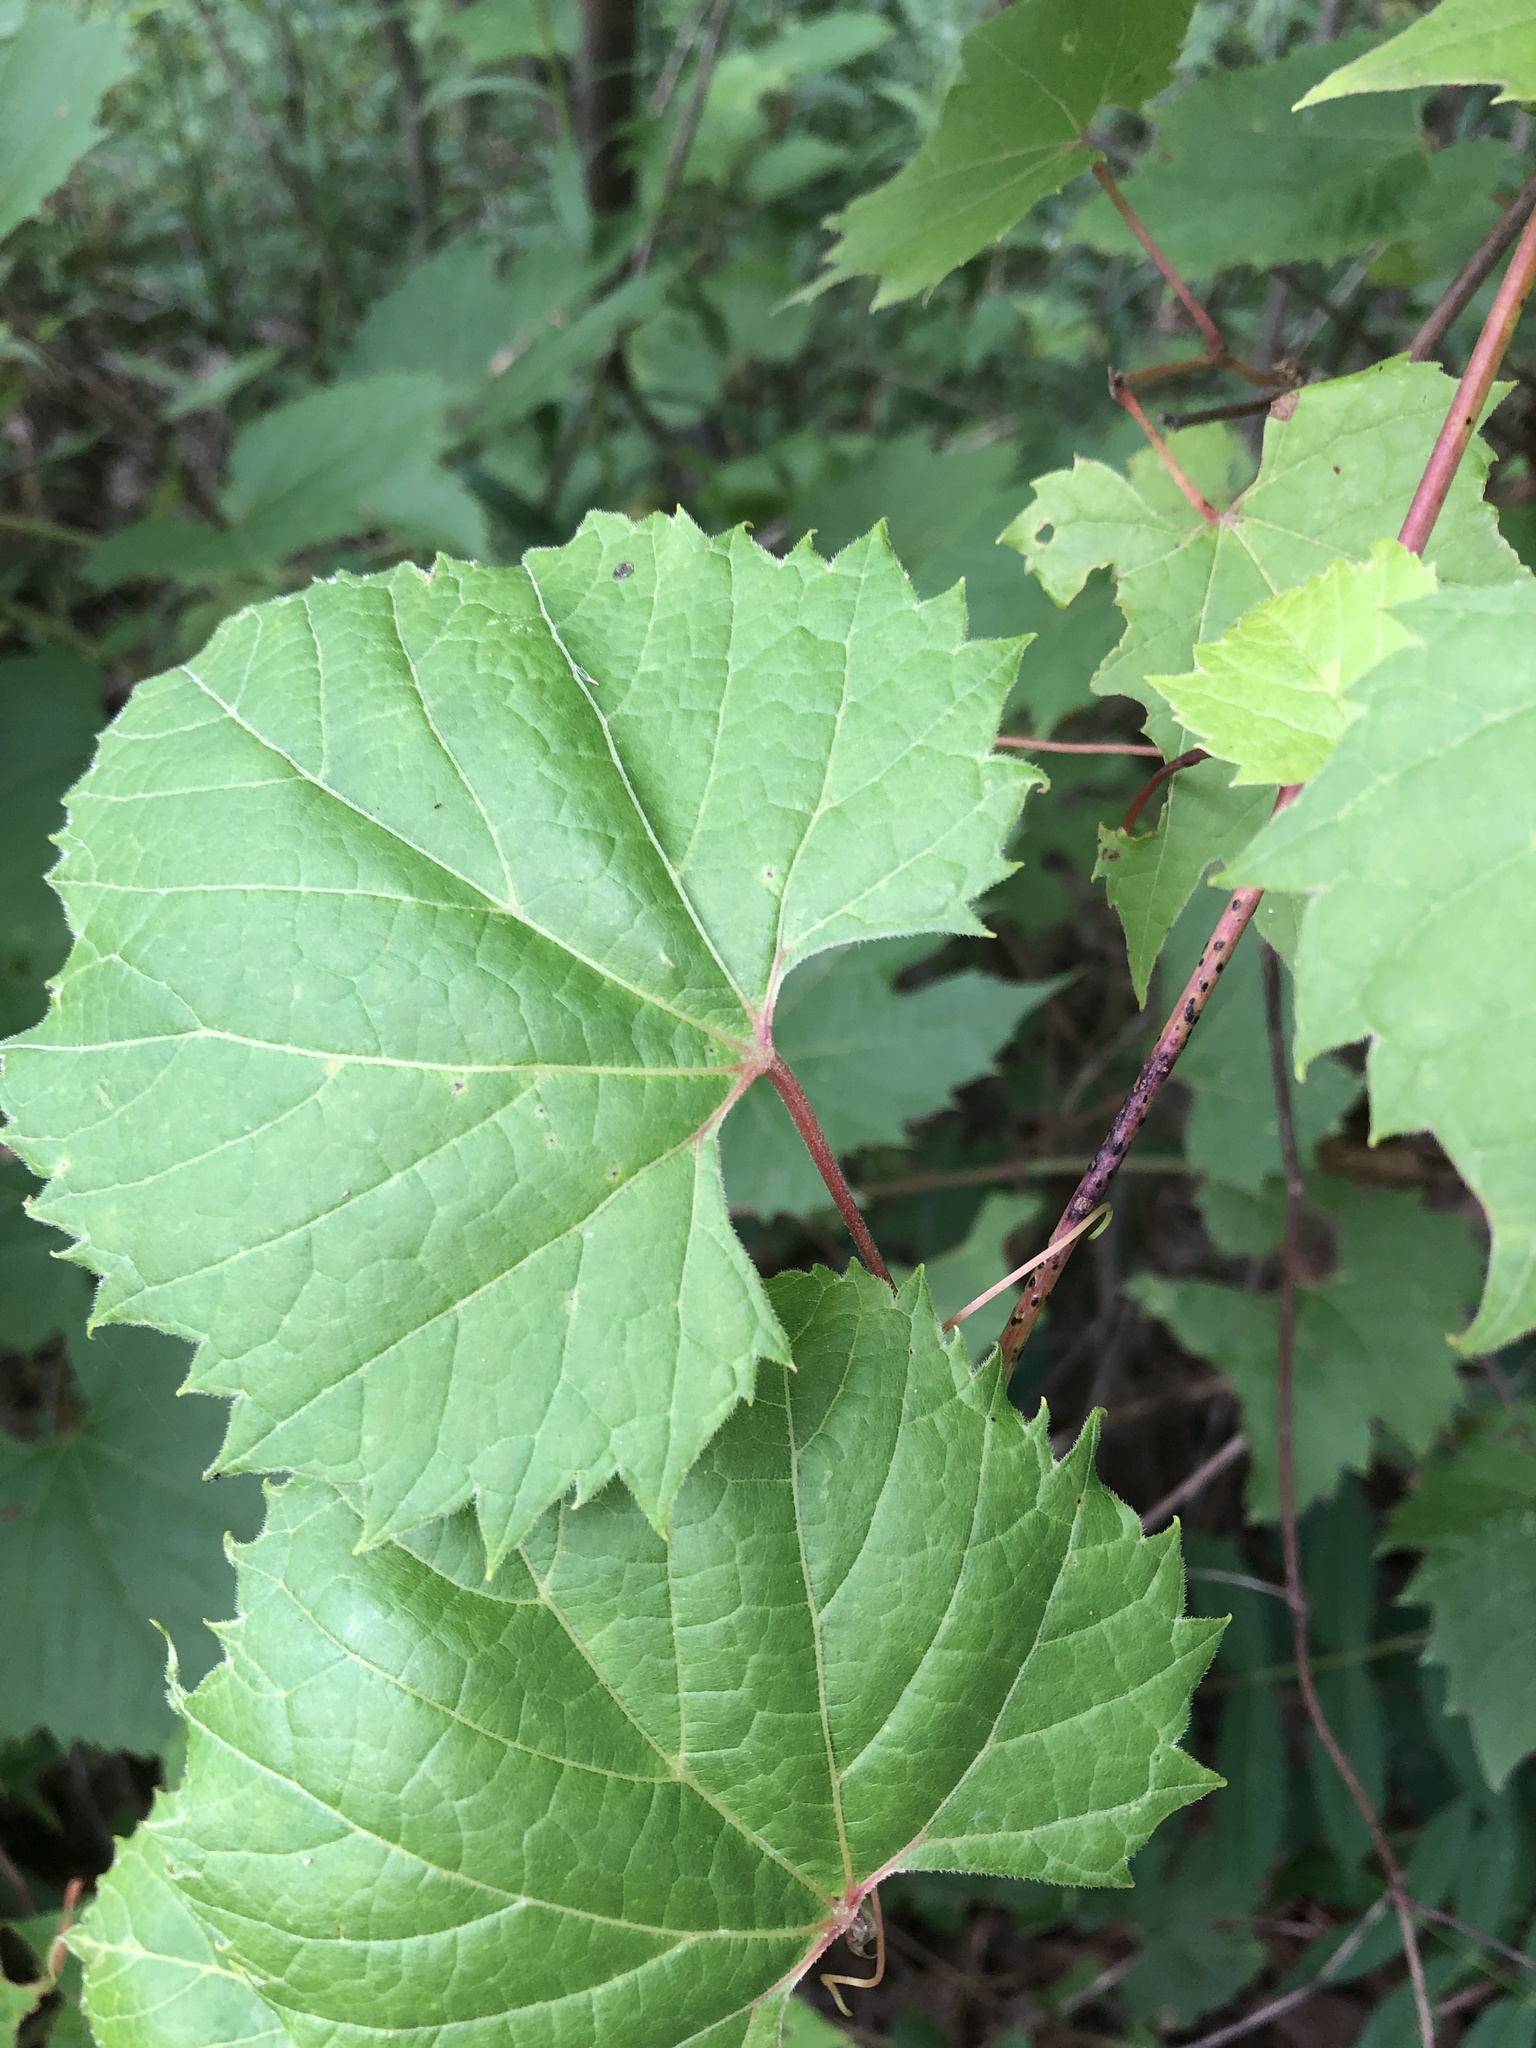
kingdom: Plantae
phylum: Tracheophyta
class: Magnoliopsida
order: Vitales
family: Vitaceae
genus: Vitis
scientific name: Vitis riparia
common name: Frost grape
